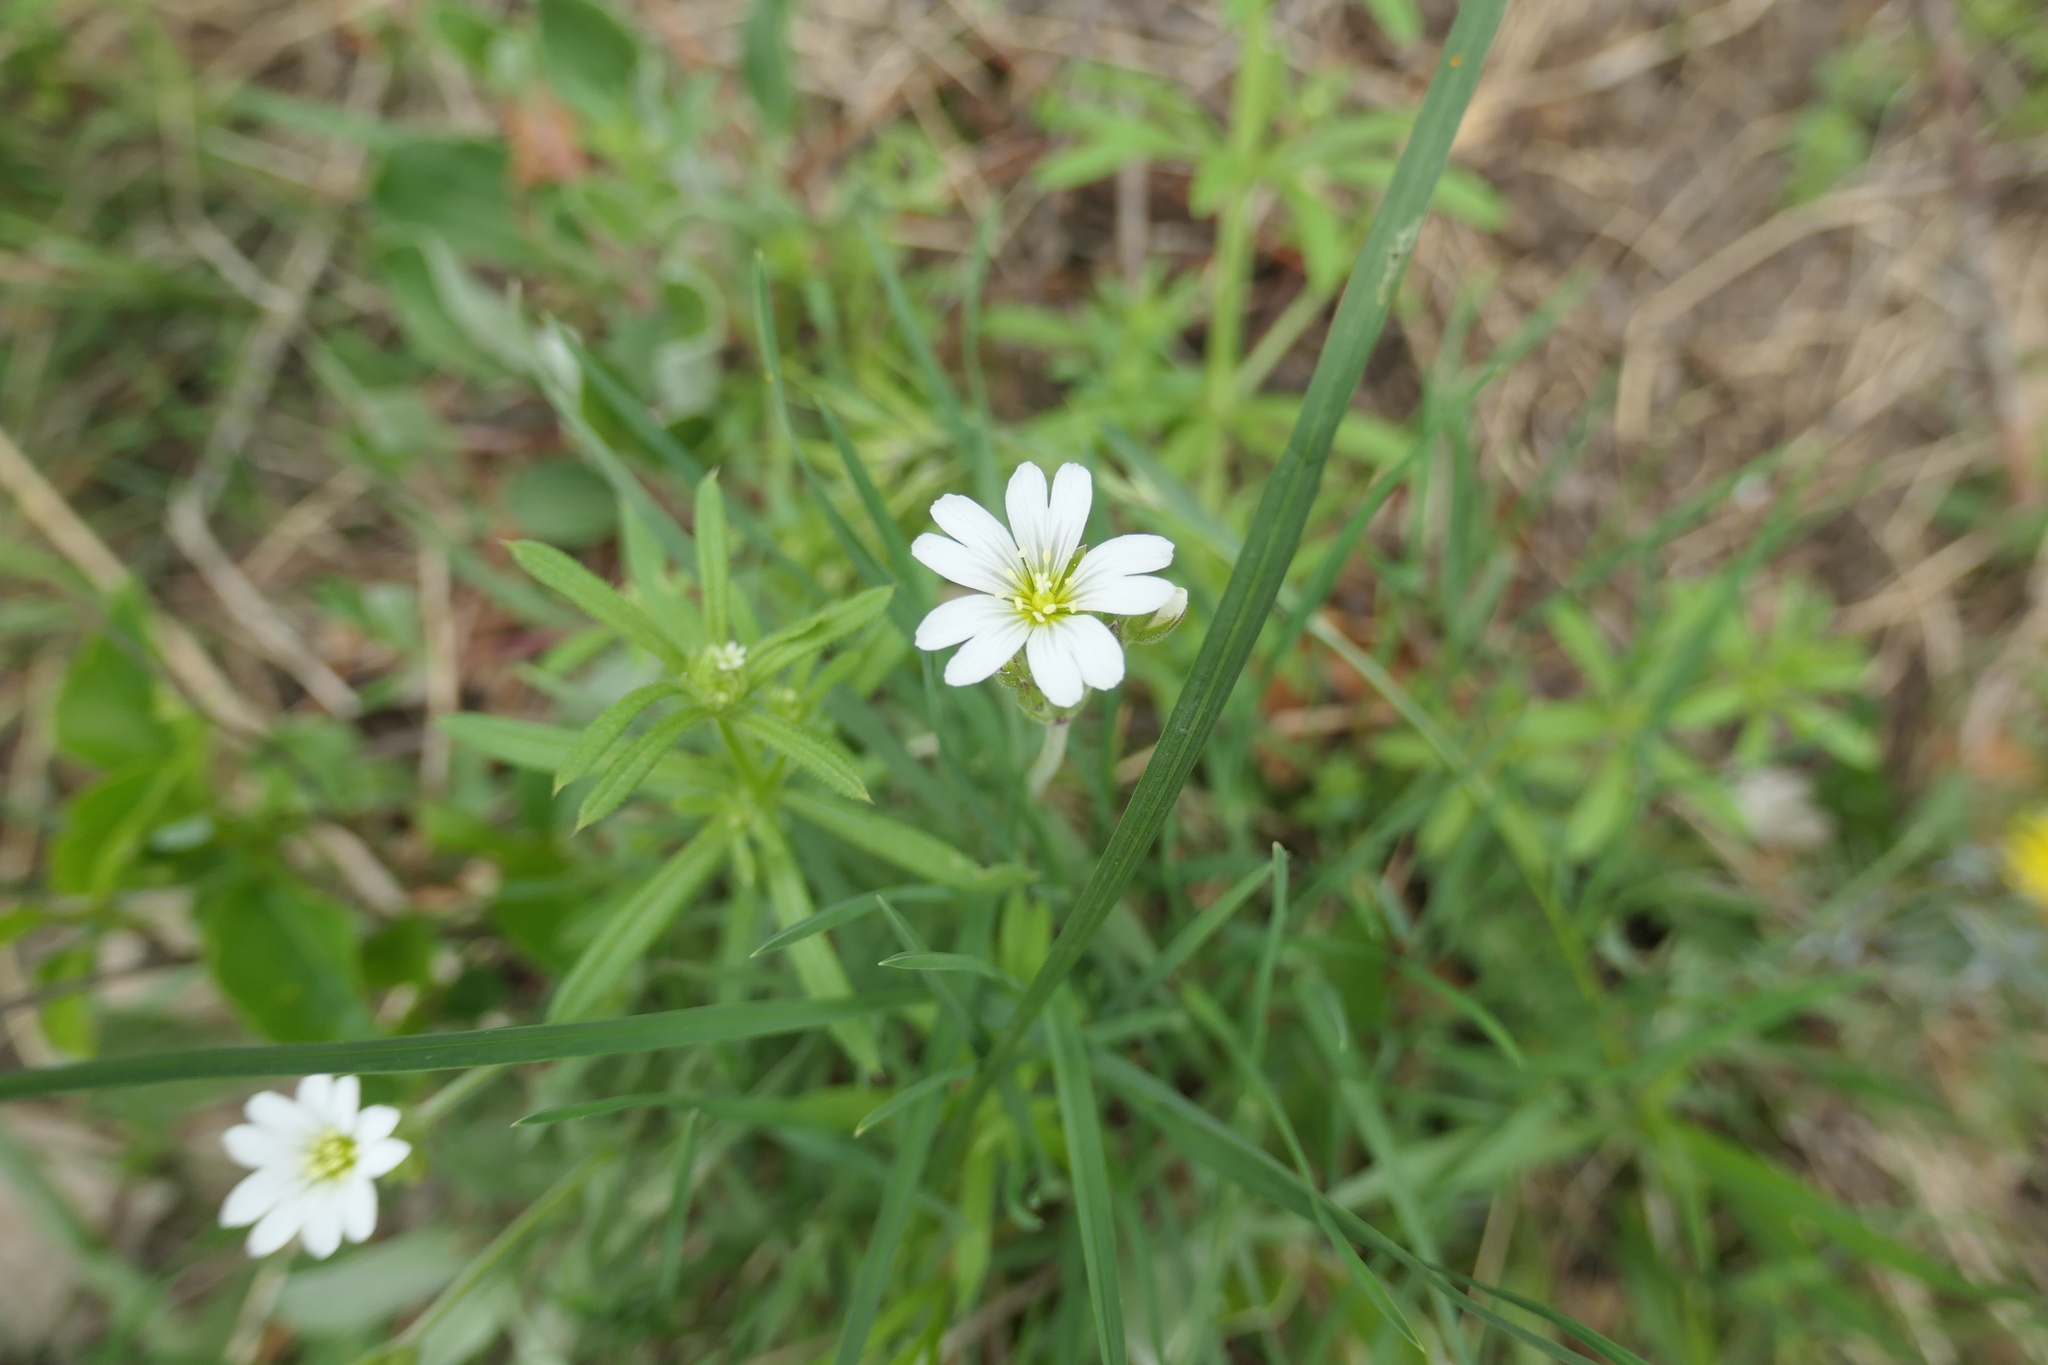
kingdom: Plantae
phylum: Tracheophyta
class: Magnoliopsida
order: Caryophyllales
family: Caryophyllaceae
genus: Cerastium
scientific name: Cerastium arvense
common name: Field mouse-ear
